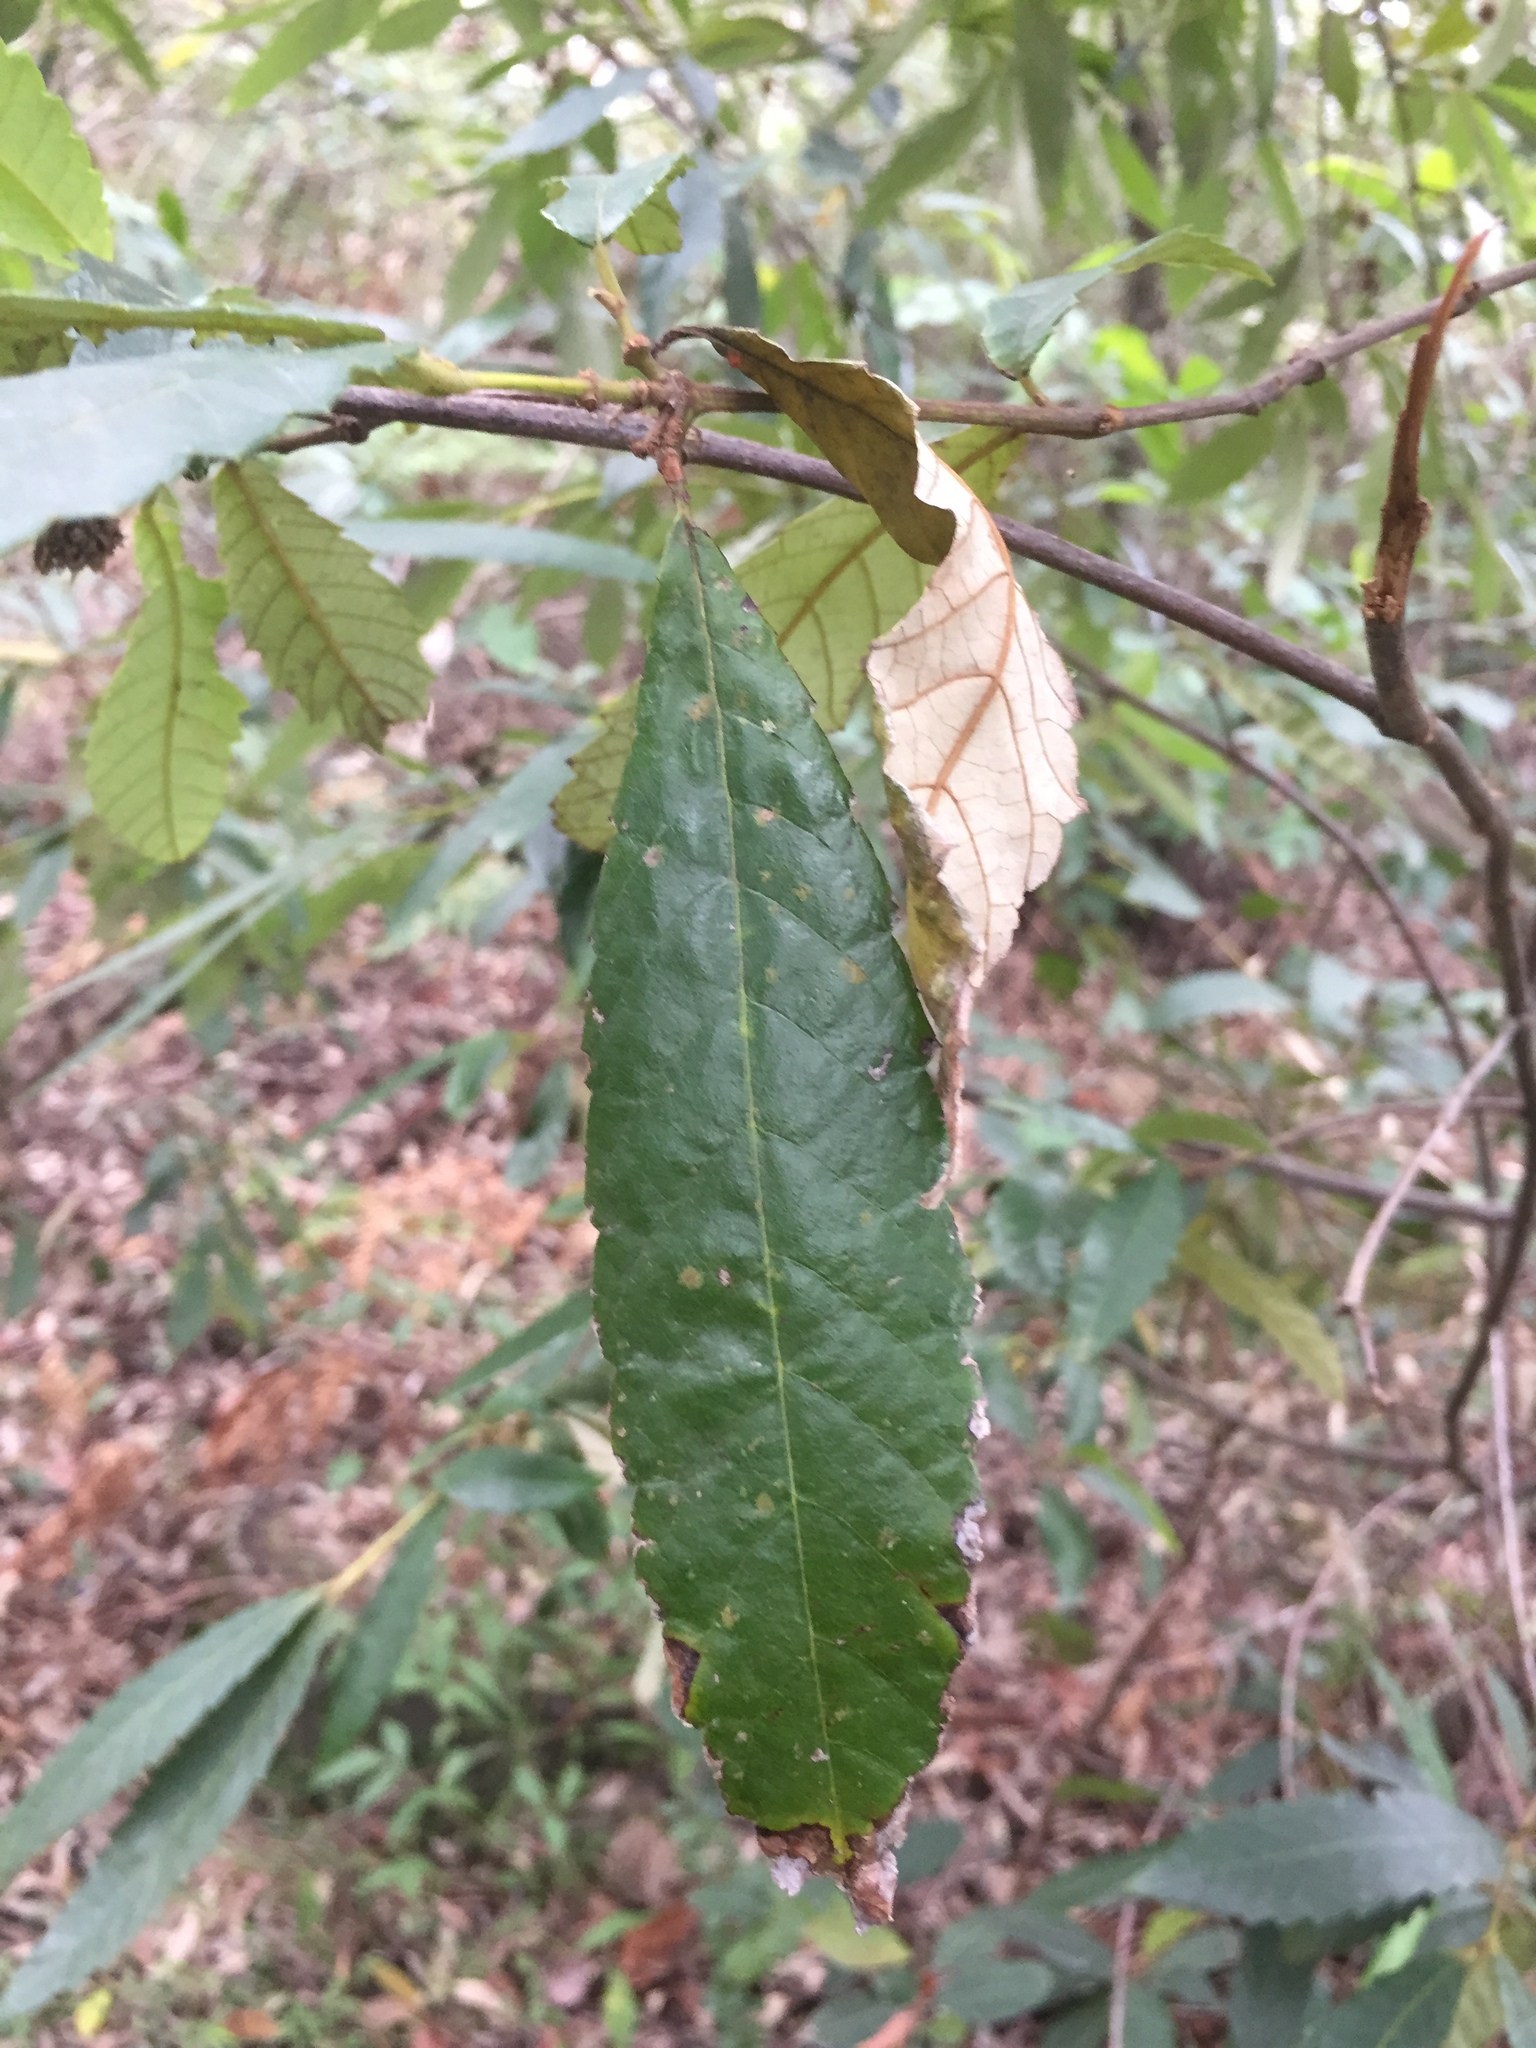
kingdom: Plantae
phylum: Tracheophyta
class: Magnoliopsida
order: Oxalidales
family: Cunoniaceae
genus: Callicoma
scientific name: Callicoma serratifolia
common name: Black wattle
